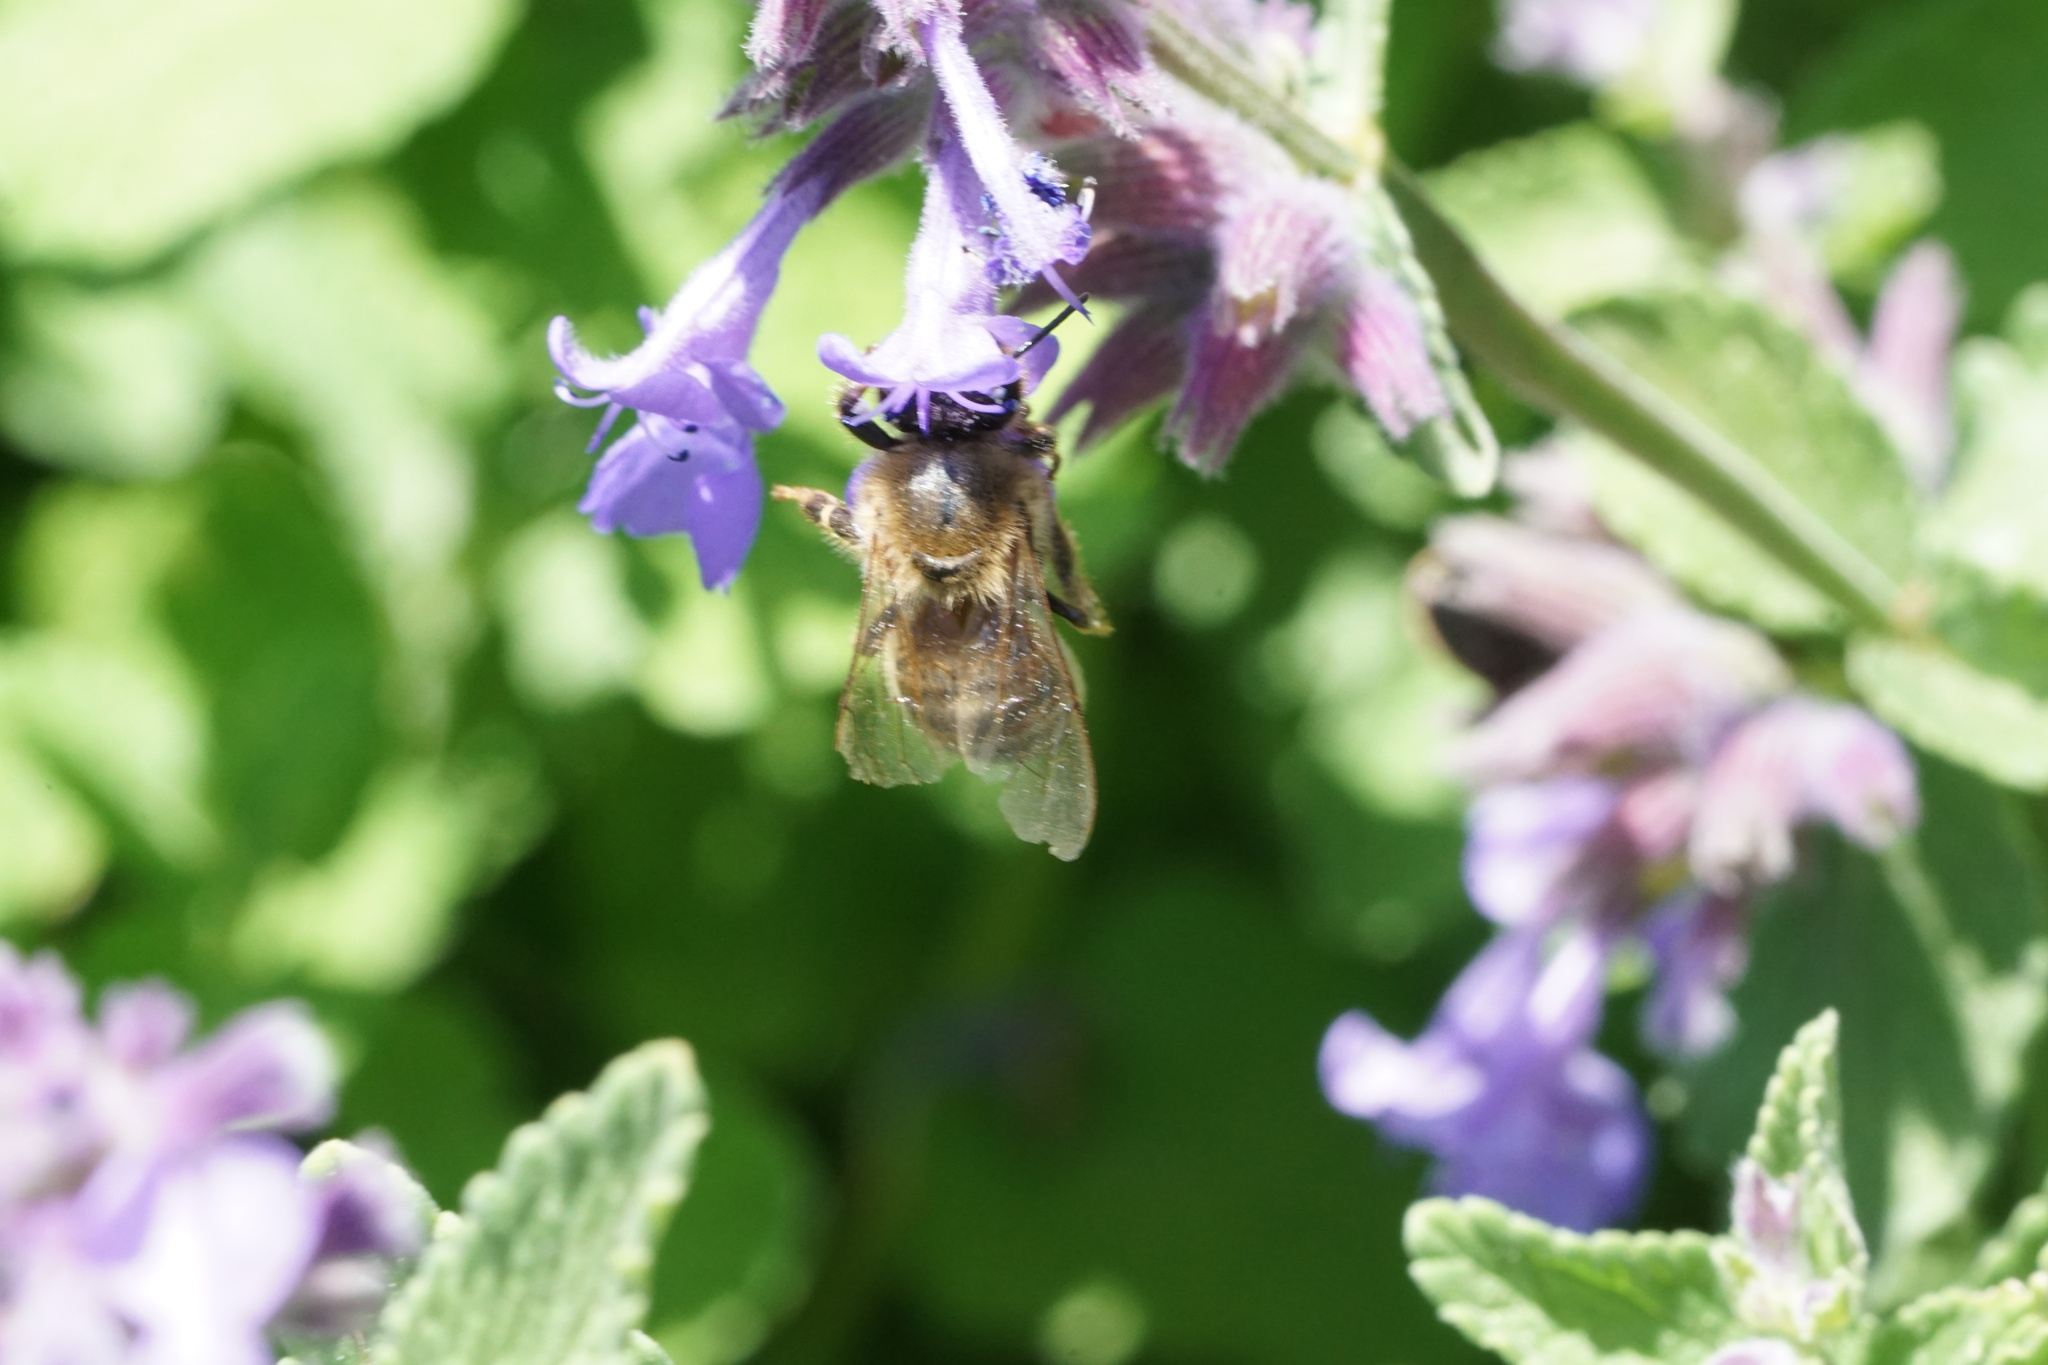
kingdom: Animalia
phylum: Arthropoda
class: Insecta
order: Hymenoptera
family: Apidae
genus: Apis
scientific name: Apis mellifera
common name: Honey bee
